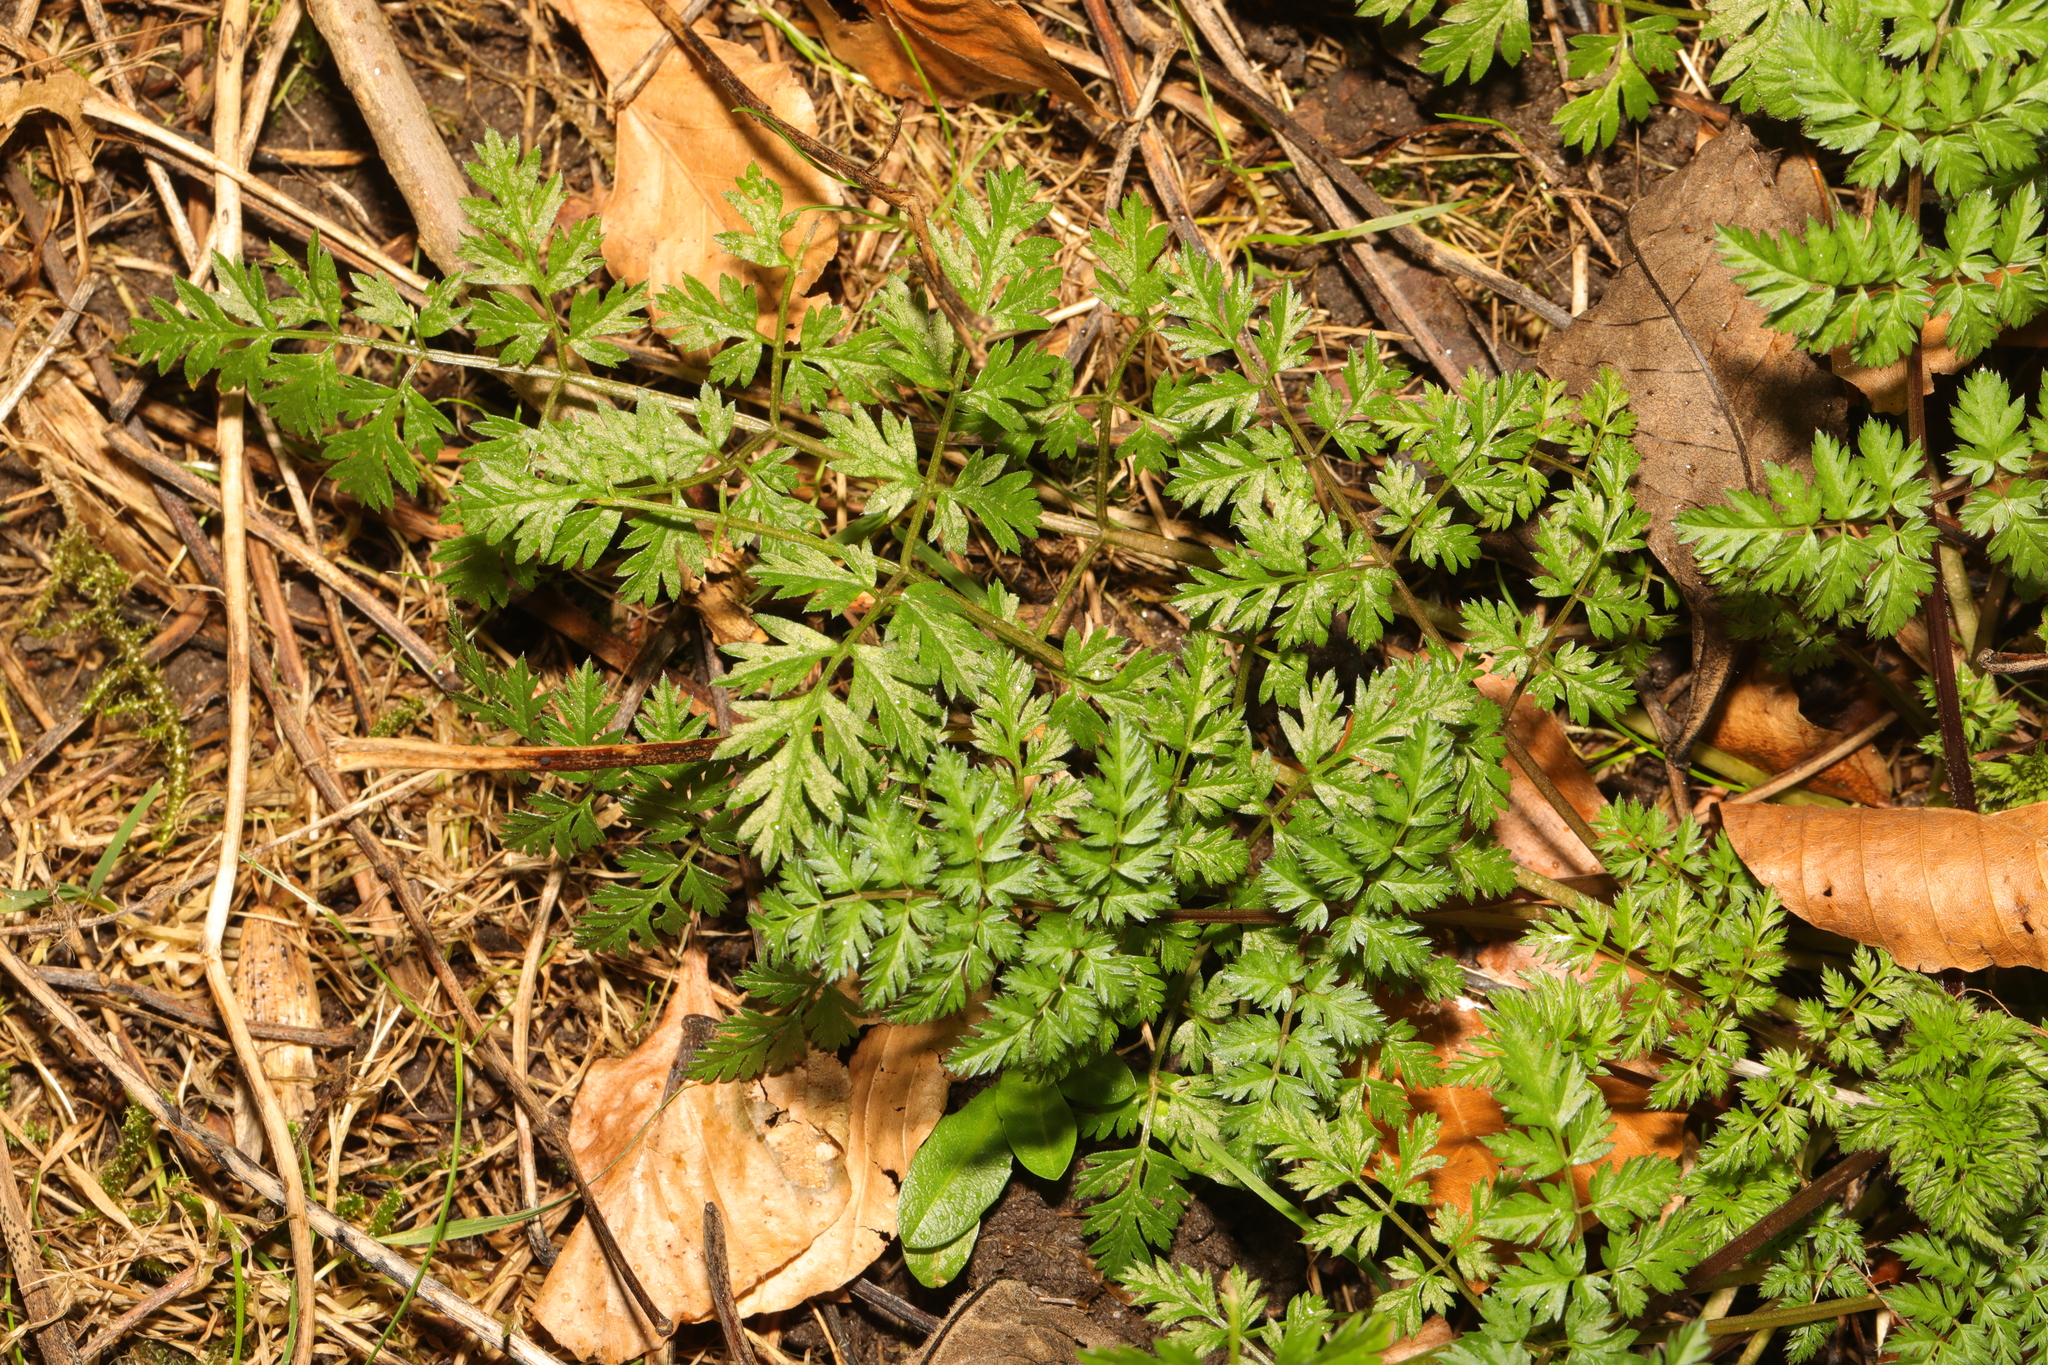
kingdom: Plantae
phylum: Tracheophyta
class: Magnoliopsida
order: Apiales
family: Apiaceae
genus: Anthriscus
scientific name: Anthriscus sylvestris
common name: Cow parsley
